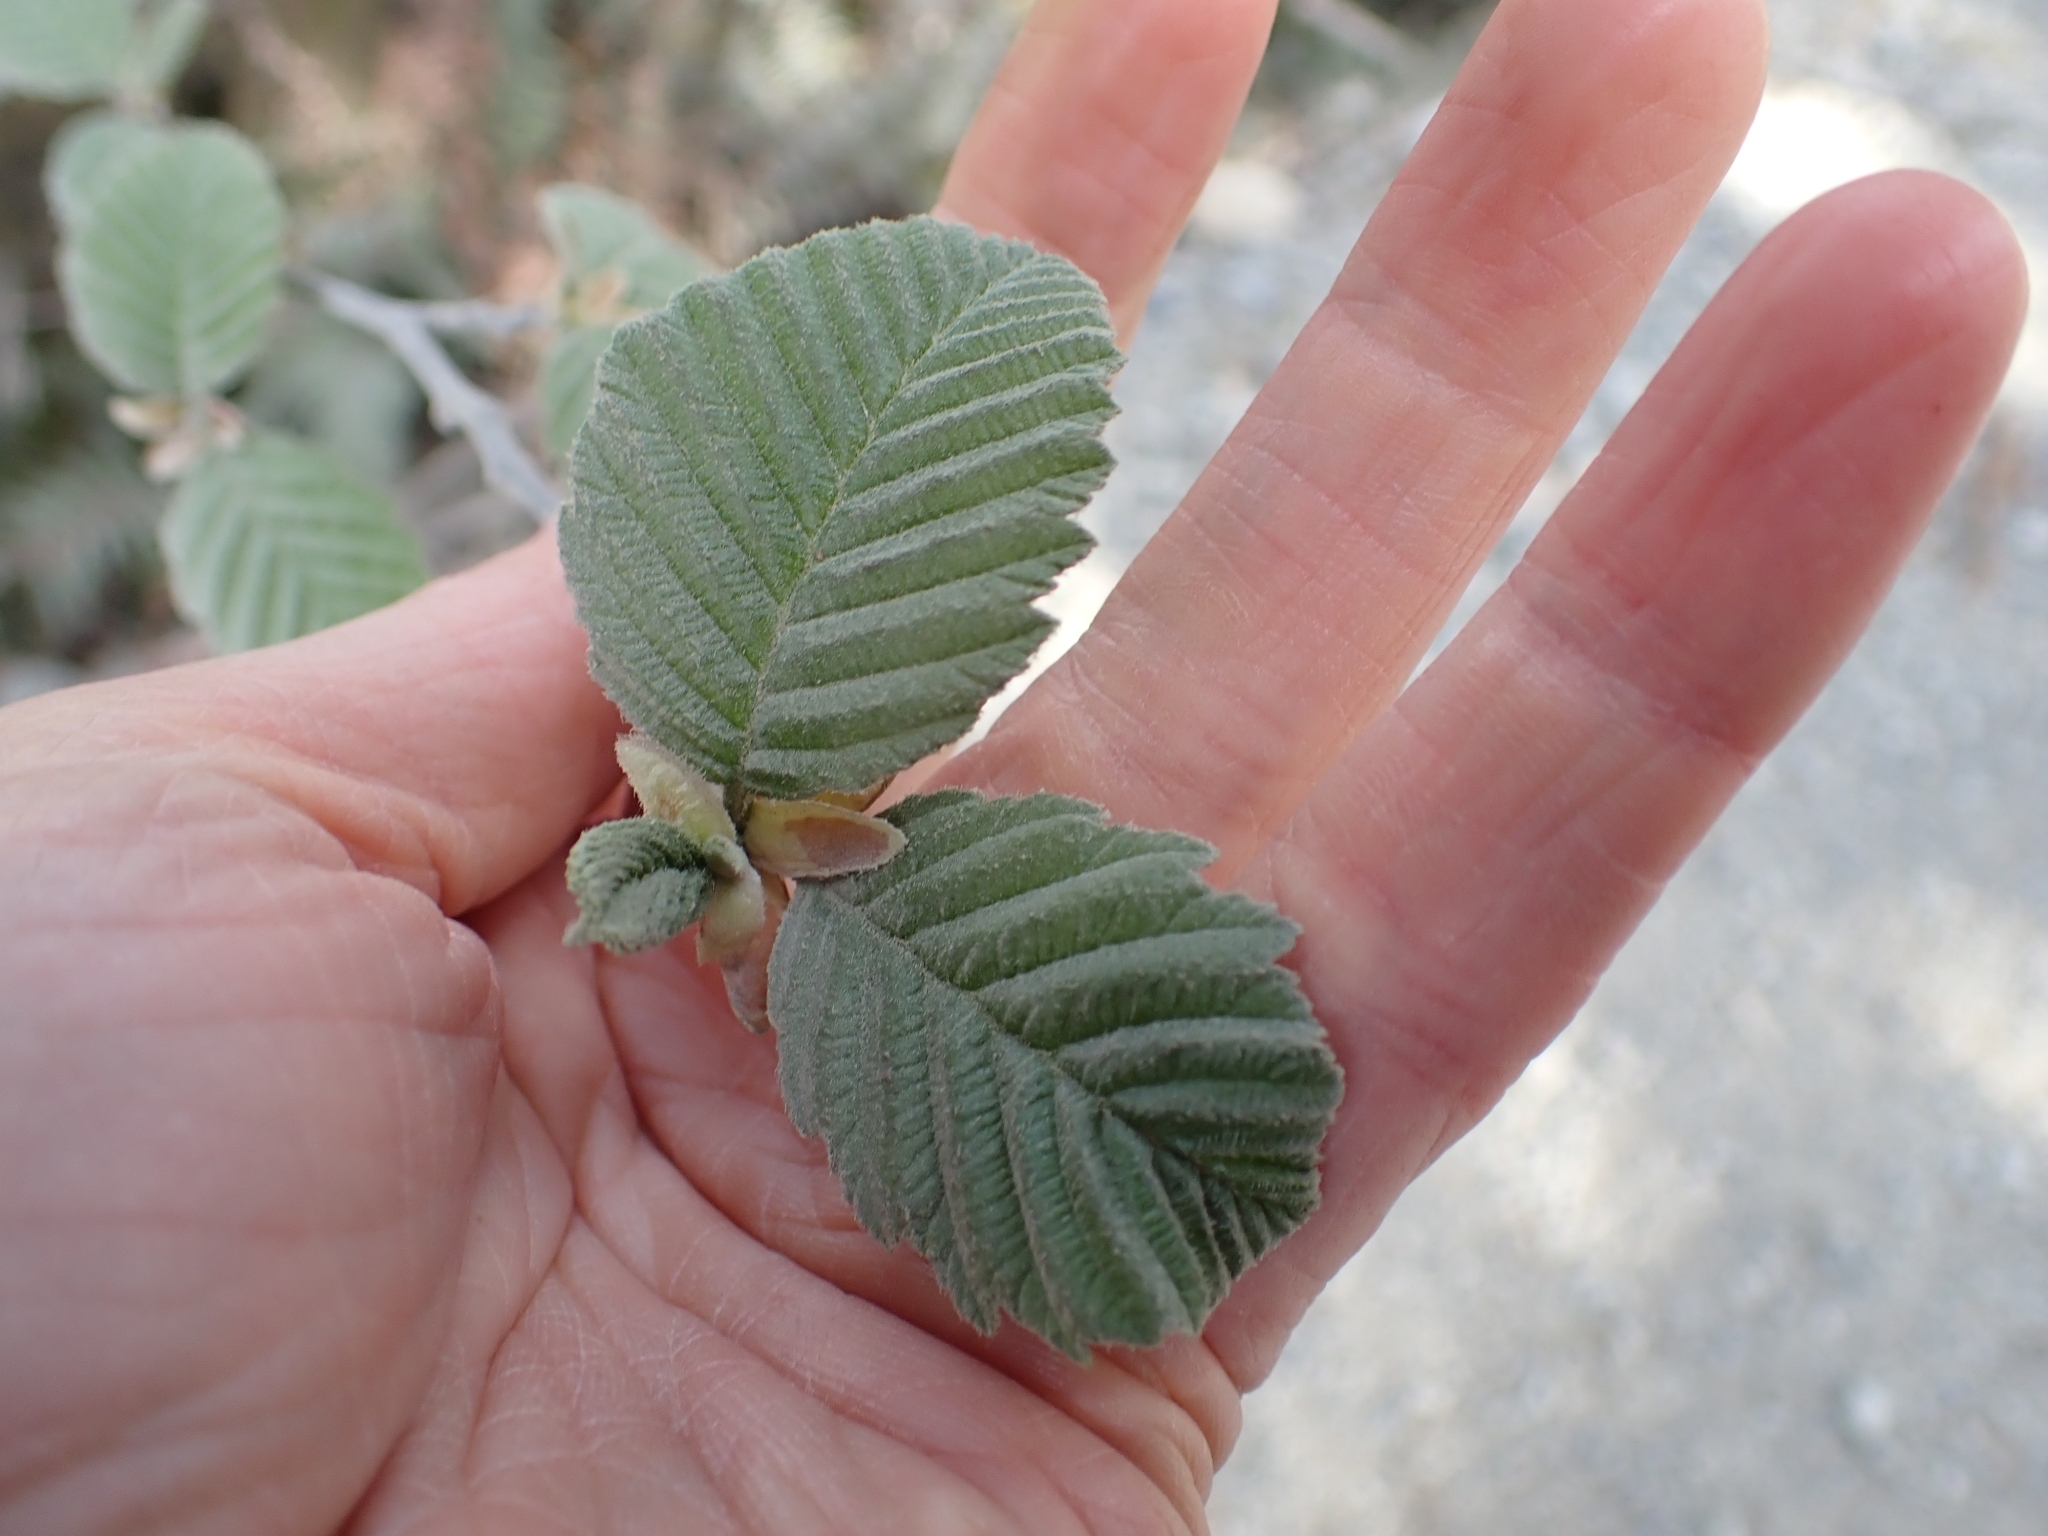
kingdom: Plantae
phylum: Tracheophyta
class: Magnoliopsida
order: Fagales
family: Betulaceae
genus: Alnus
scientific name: Alnus rubra
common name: Red alder
